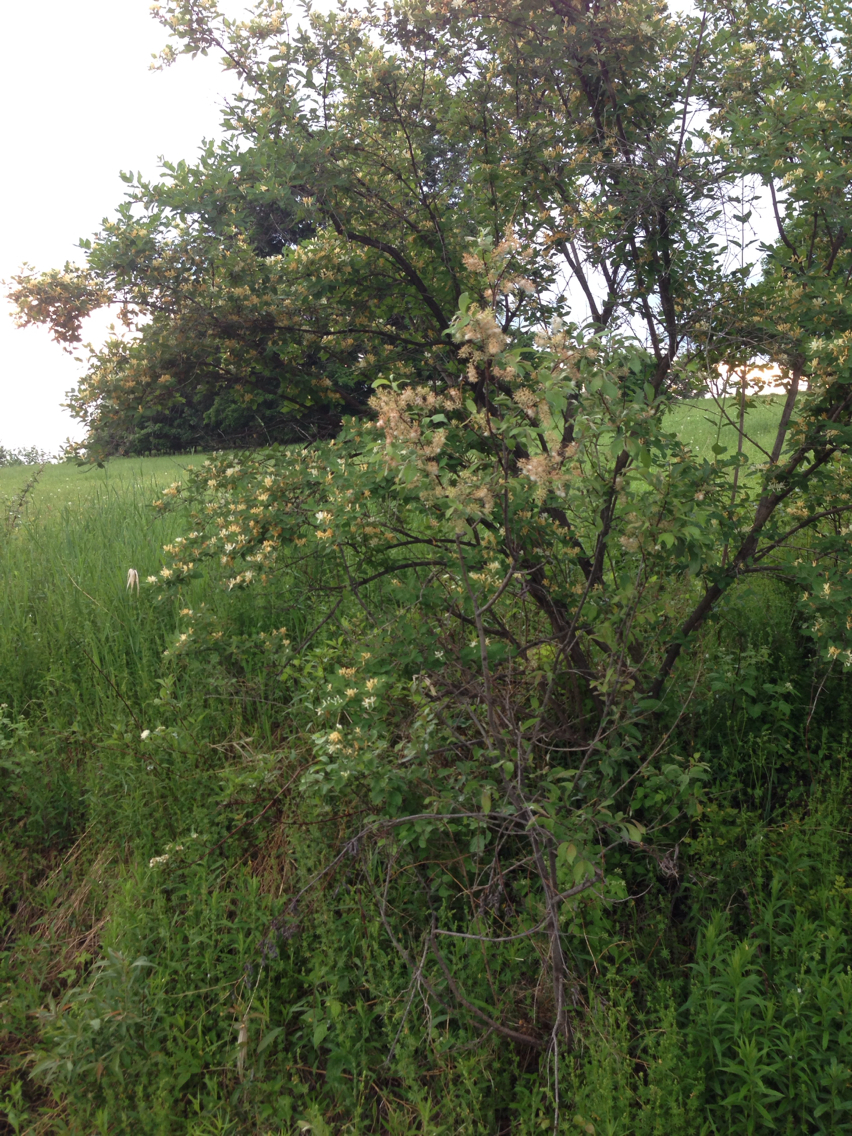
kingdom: Plantae
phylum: Tracheophyta
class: Magnoliopsida
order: Dipsacales
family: Caprifoliaceae
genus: Lonicera
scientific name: Lonicera morrowii
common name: Morrow's honeysuckle
